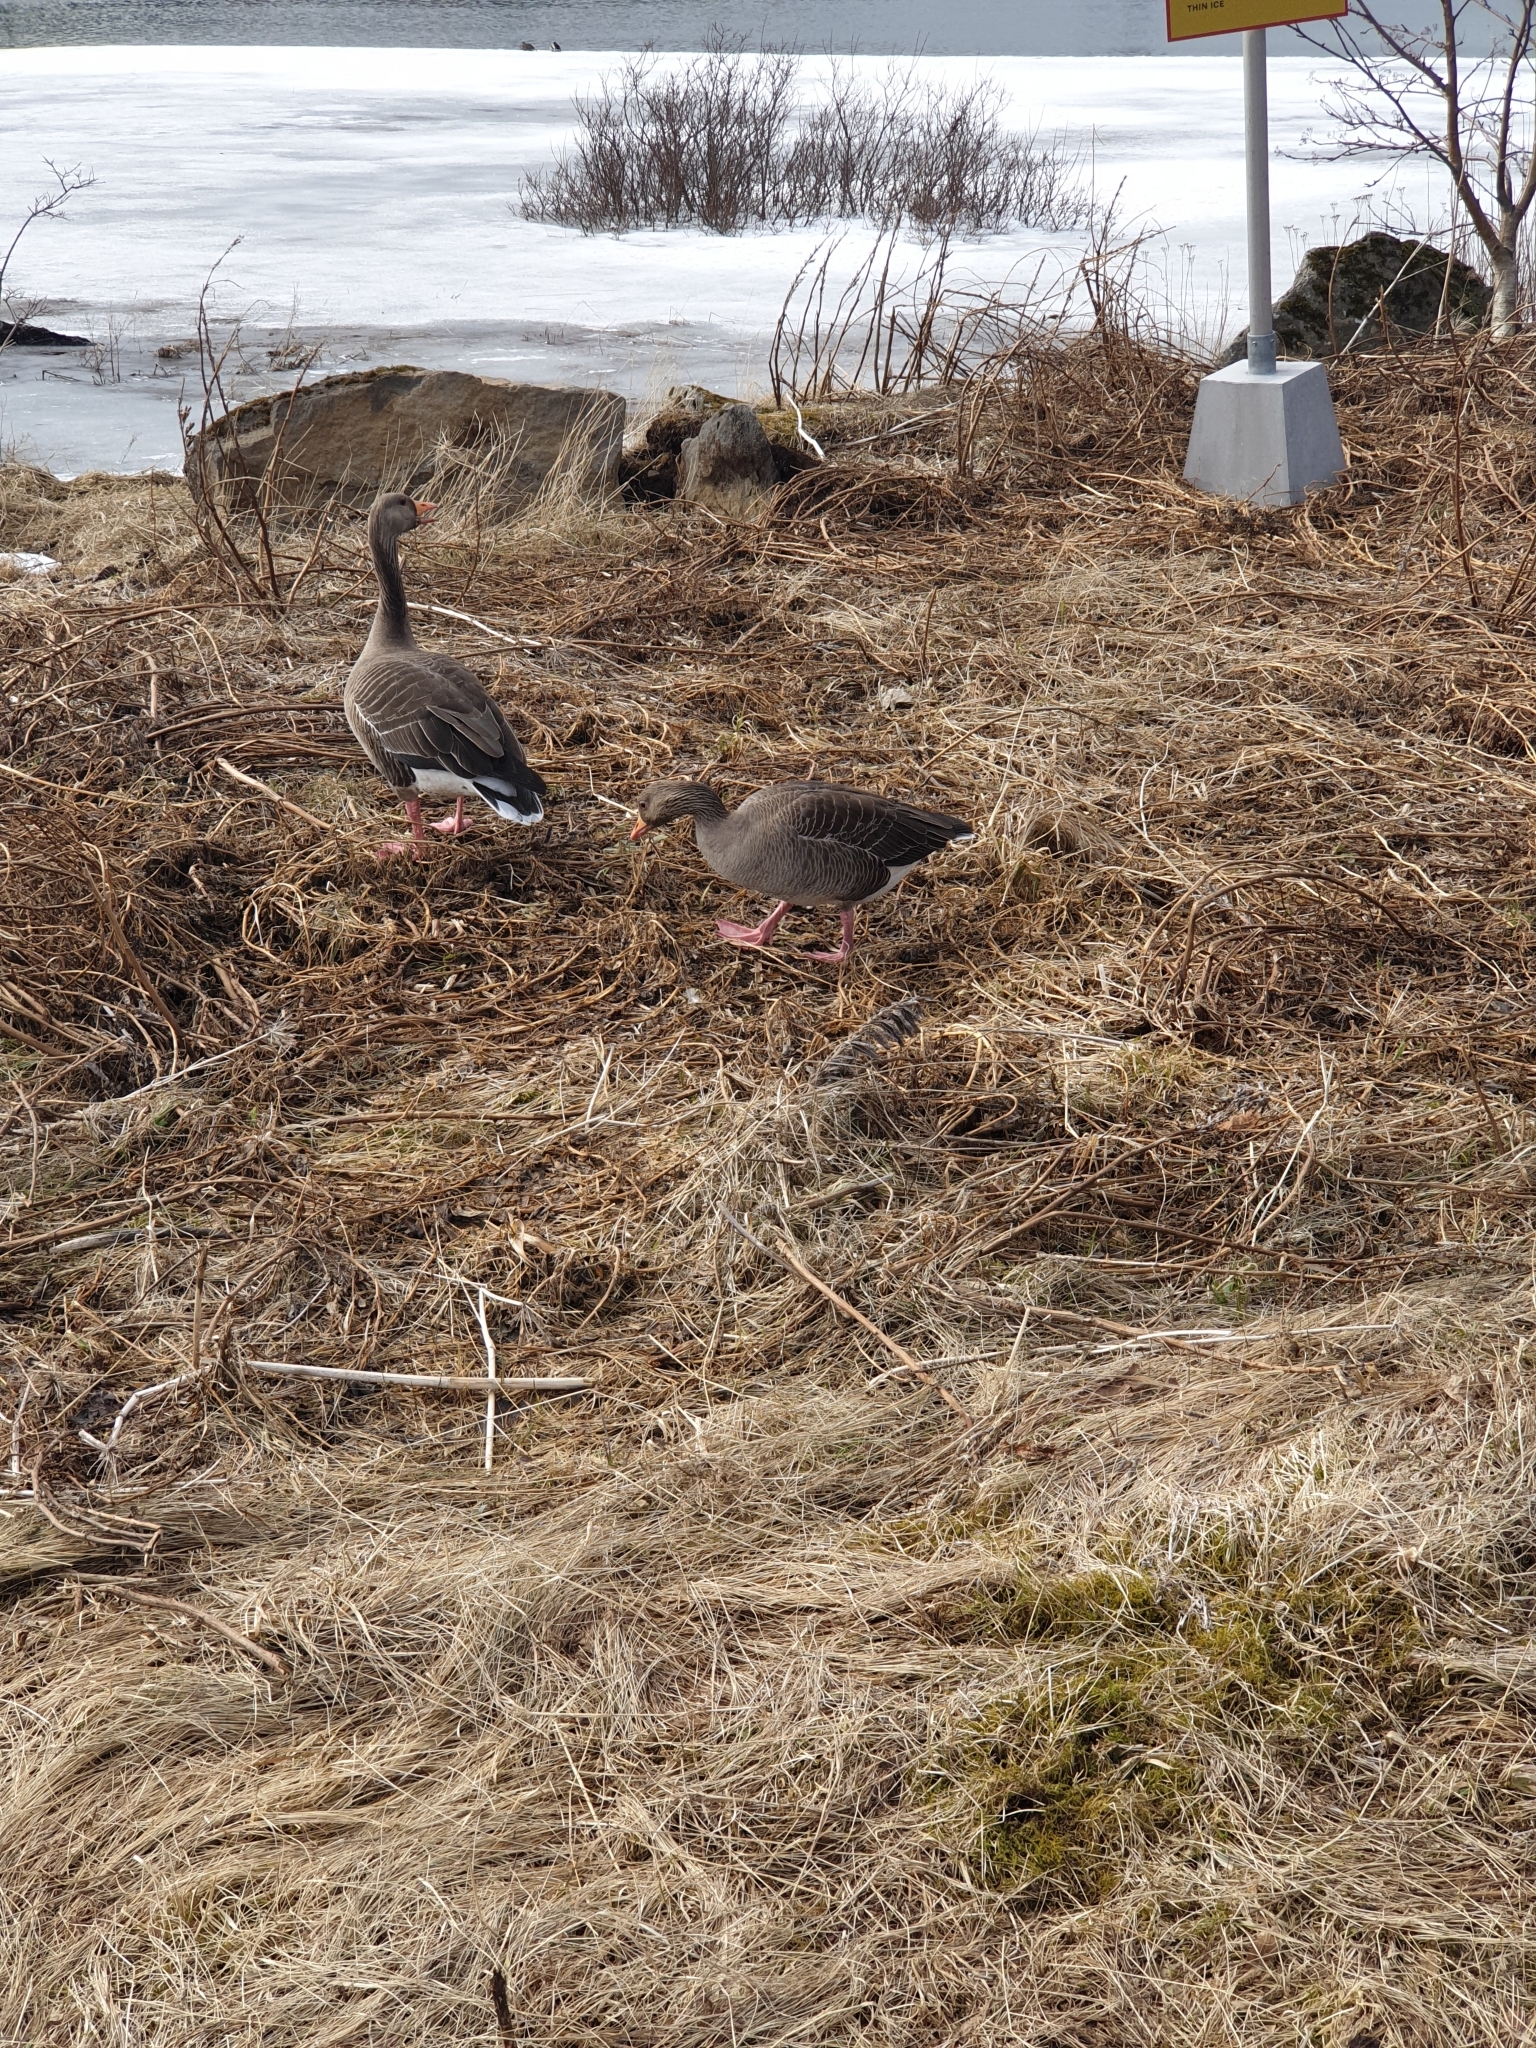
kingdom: Animalia
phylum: Chordata
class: Aves
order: Anseriformes
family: Anatidae
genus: Anser
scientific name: Anser anser
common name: Greylag goose
